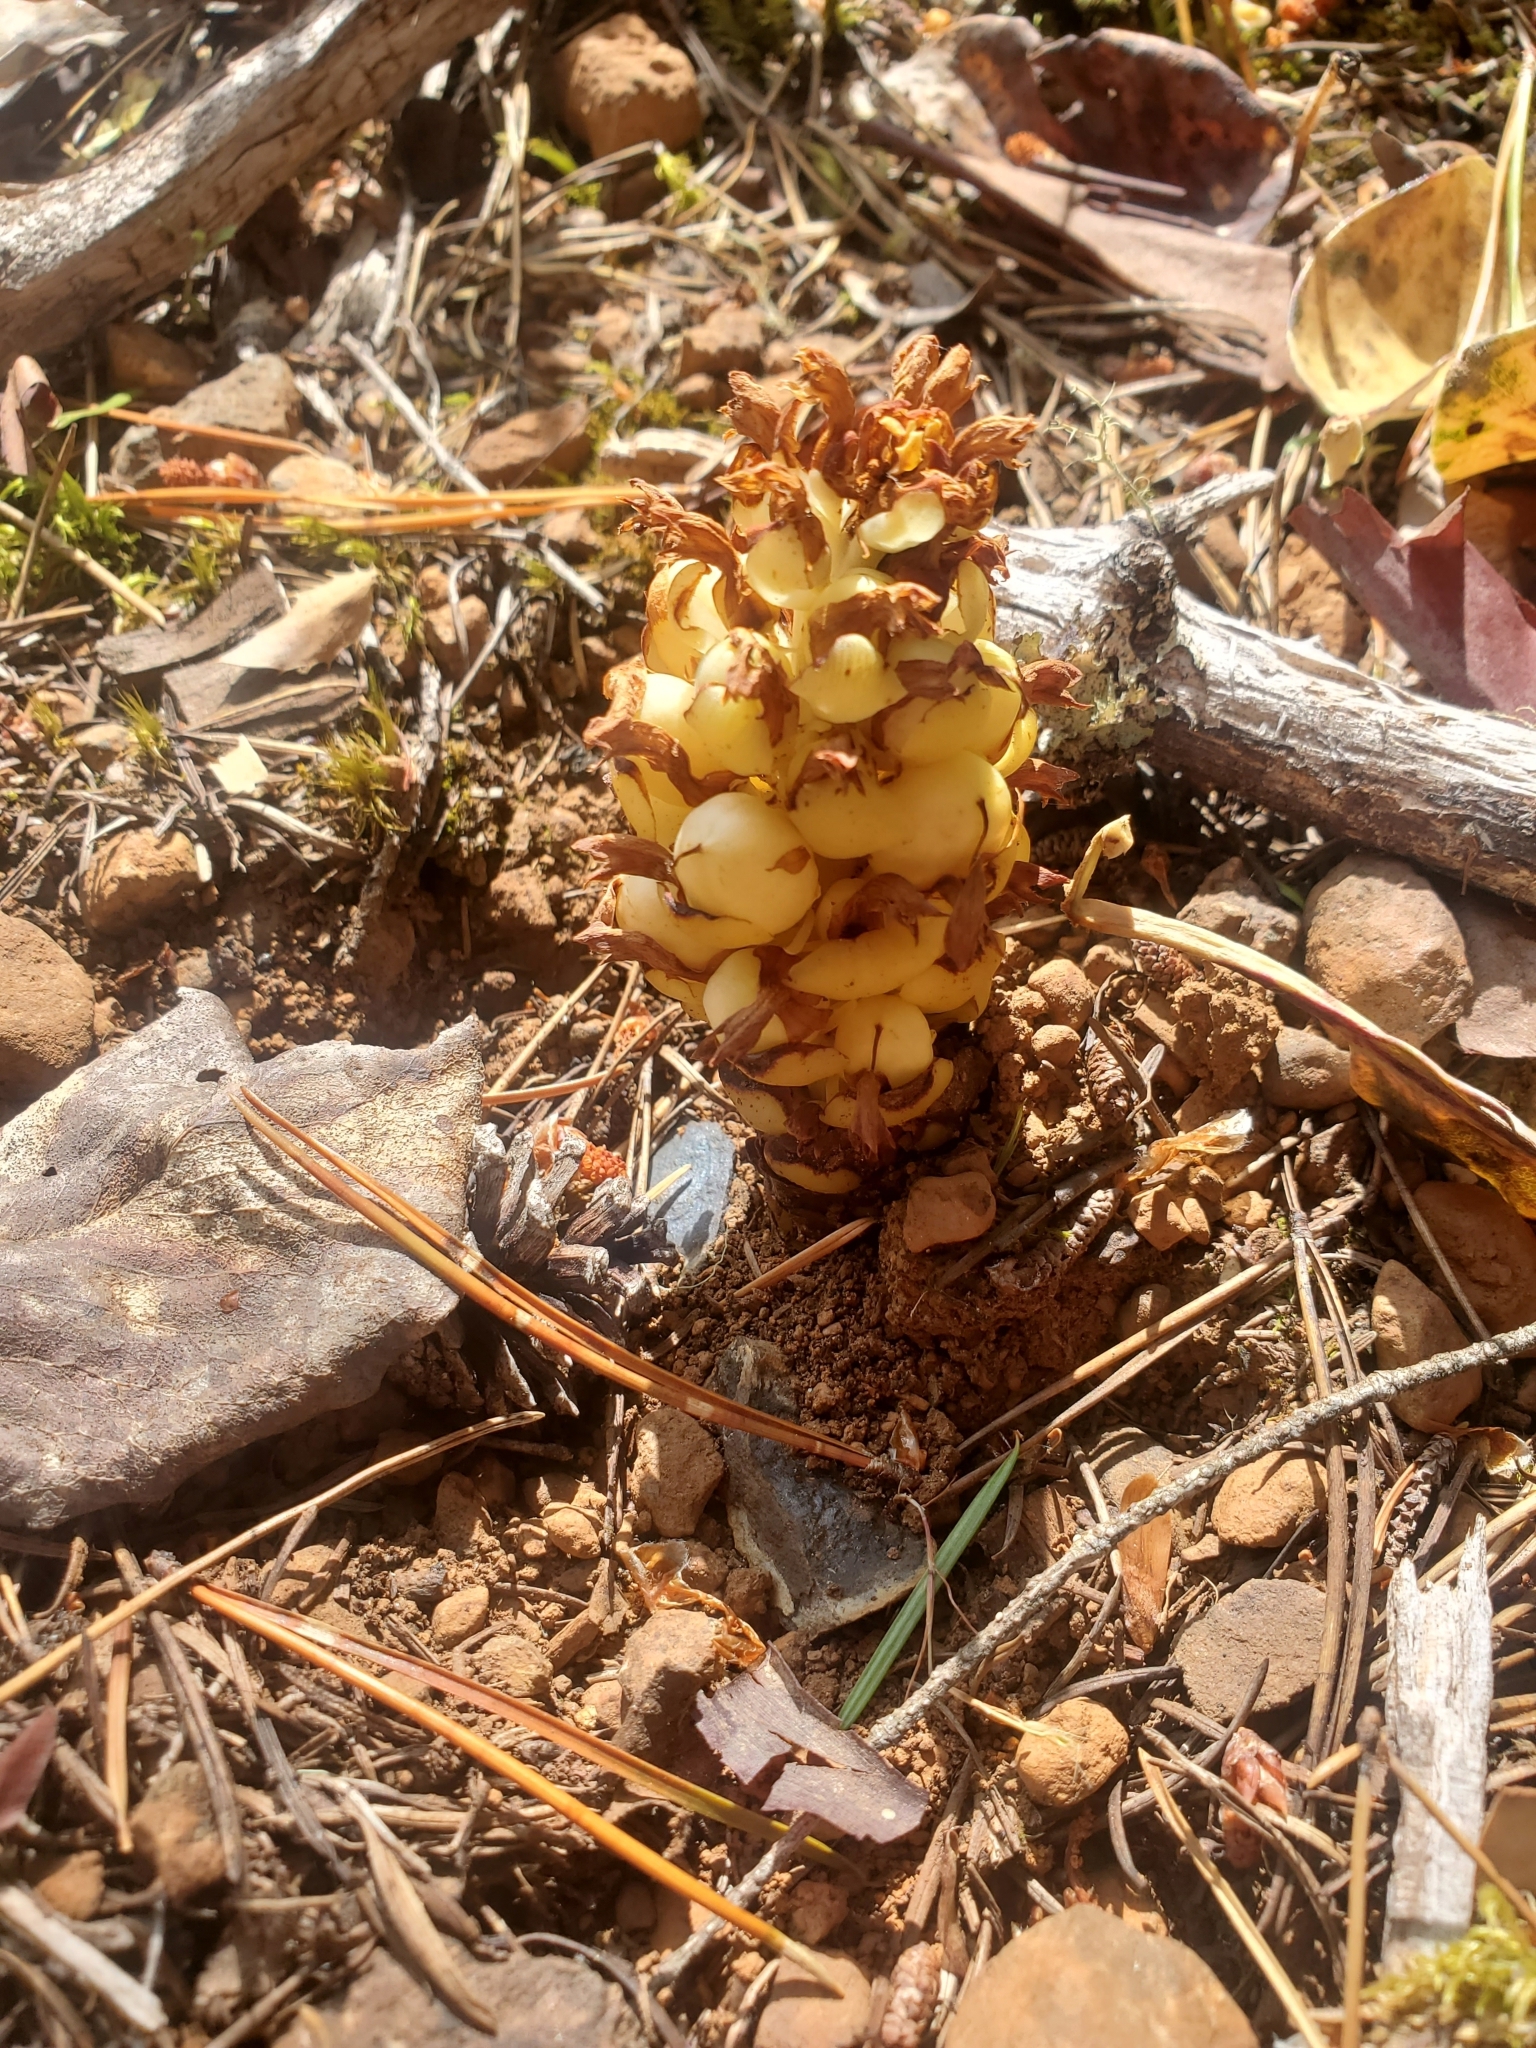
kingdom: Plantae
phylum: Tracheophyta
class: Magnoliopsida
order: Lamiales
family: Orobanchaceae
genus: Kopsiopsis
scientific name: Kopsiopsis hookeri
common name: Hooker's groundcone
